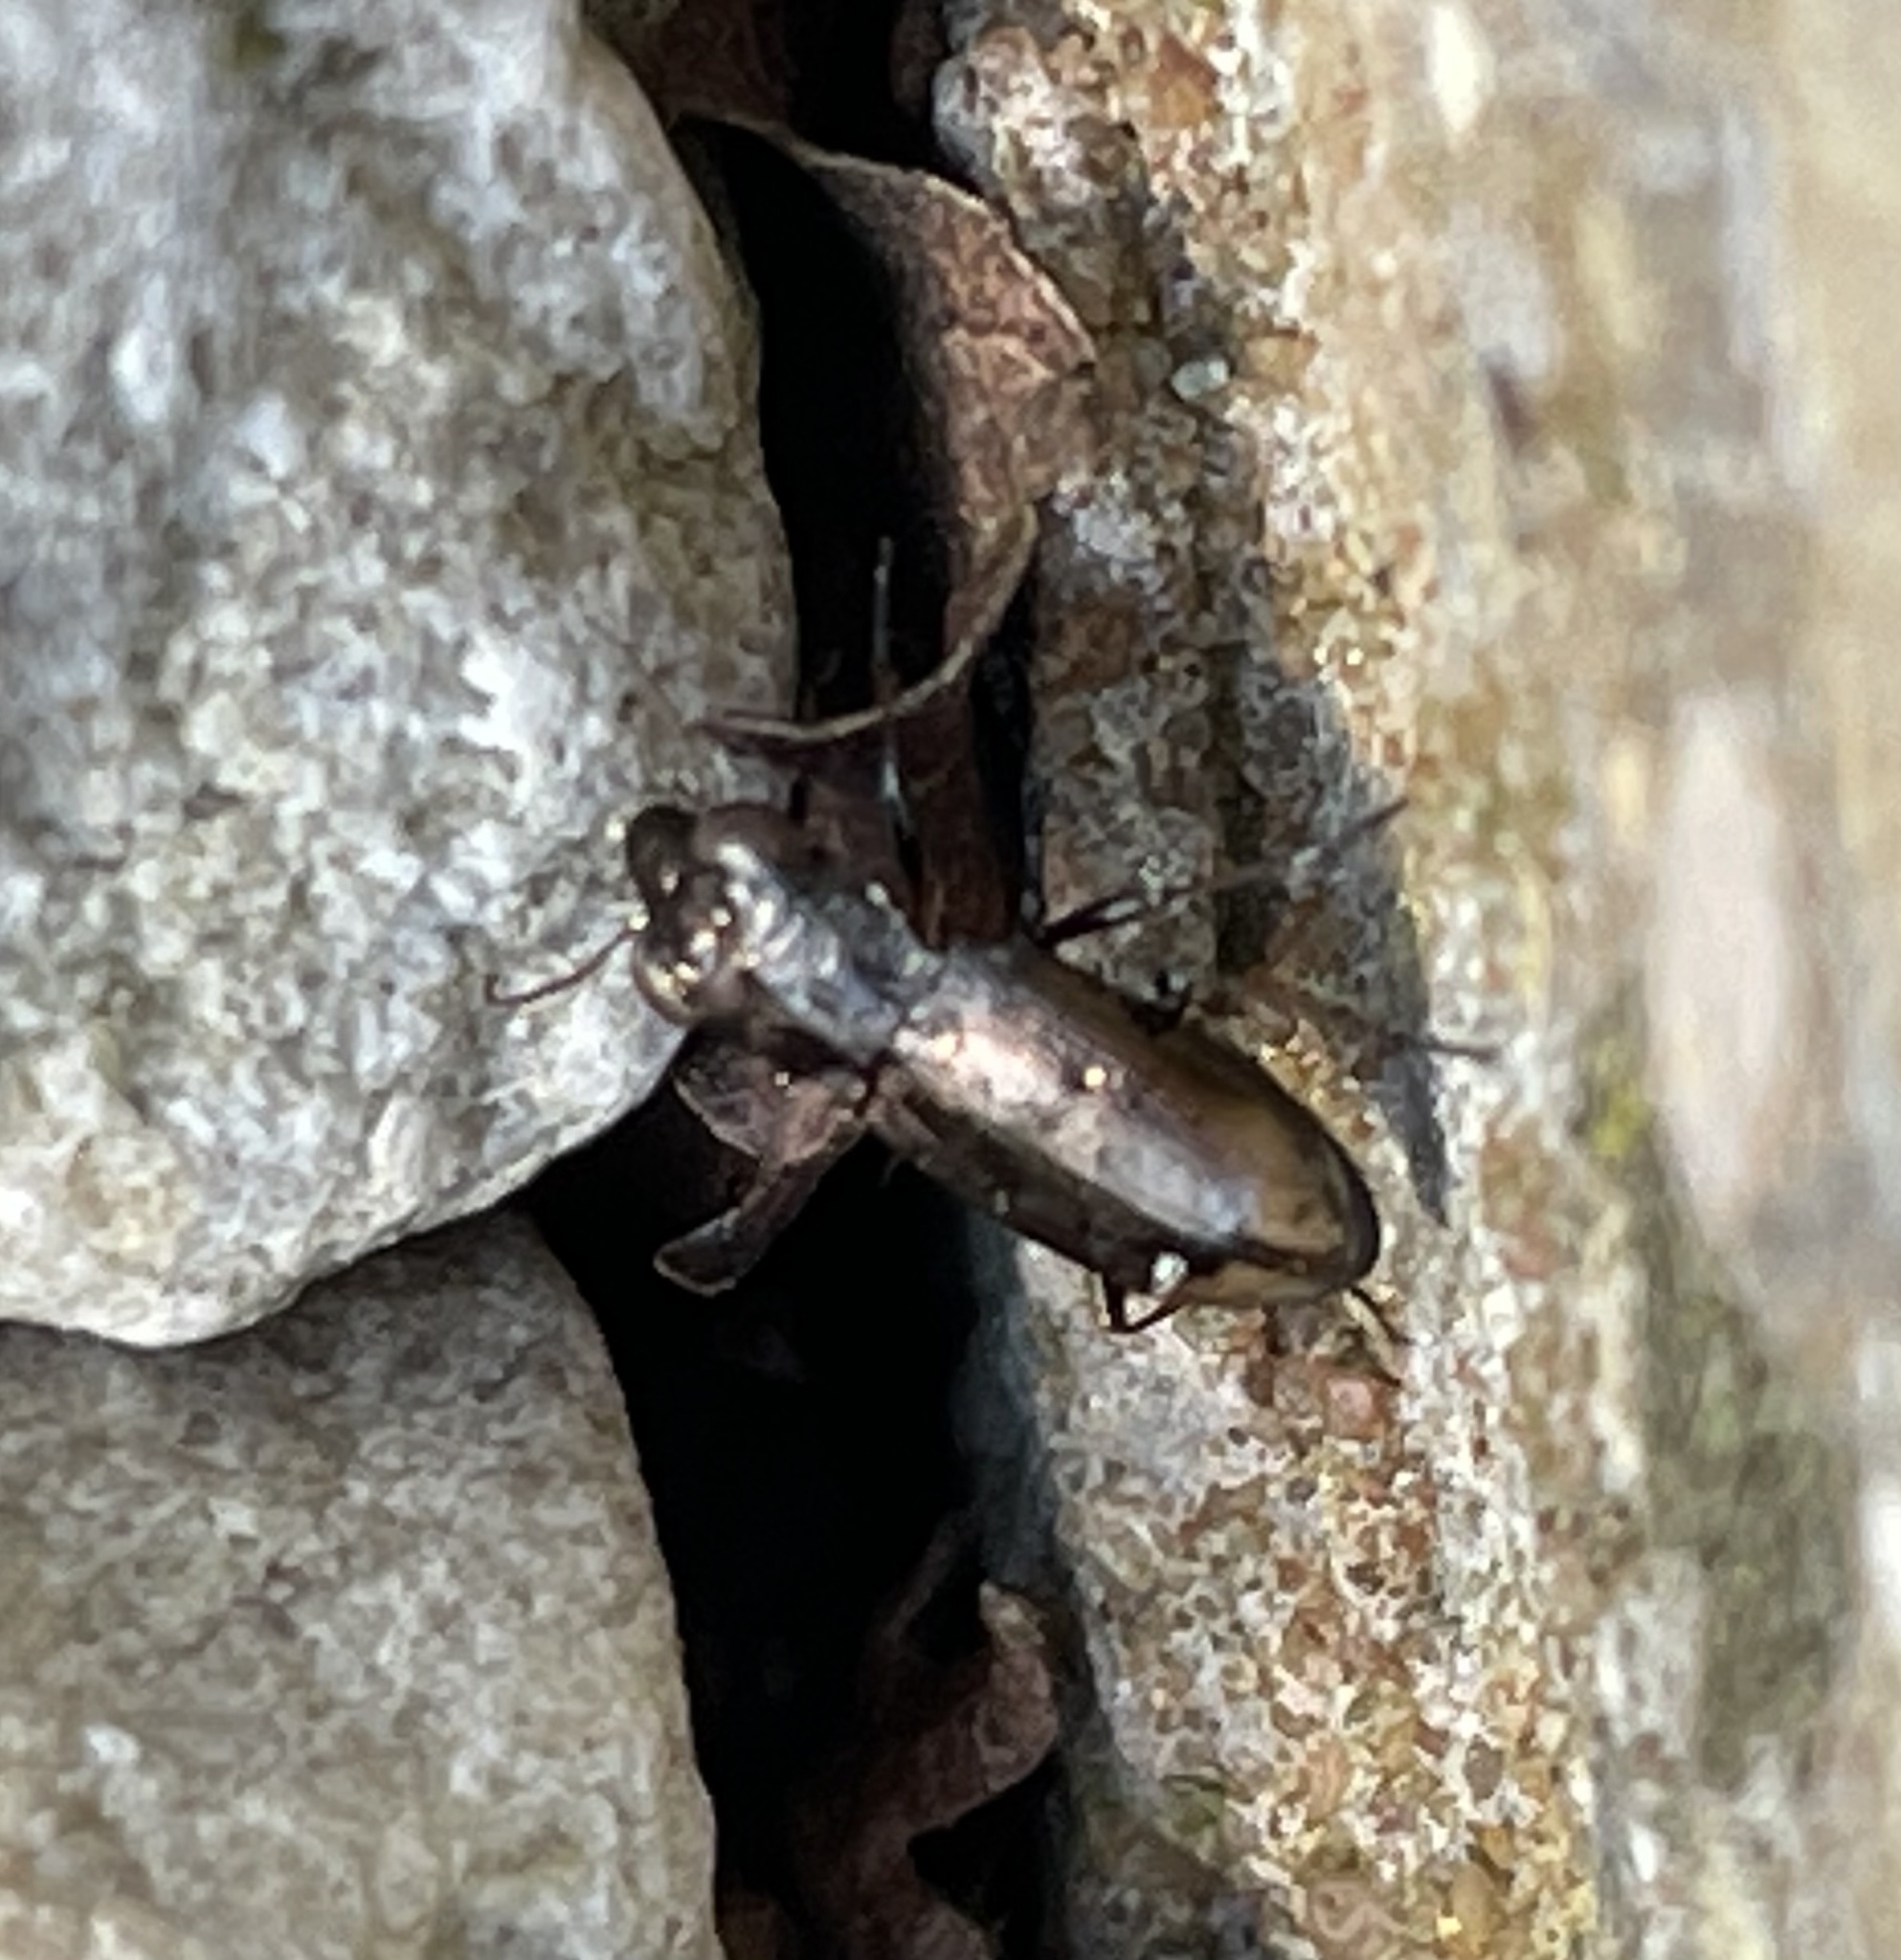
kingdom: Animalia
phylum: Arthropoda
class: Insecta
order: Coleoptera
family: Carabidae
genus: Notiophilus
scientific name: Notiophilus biguttatus
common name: Spotted gazelle beetle
